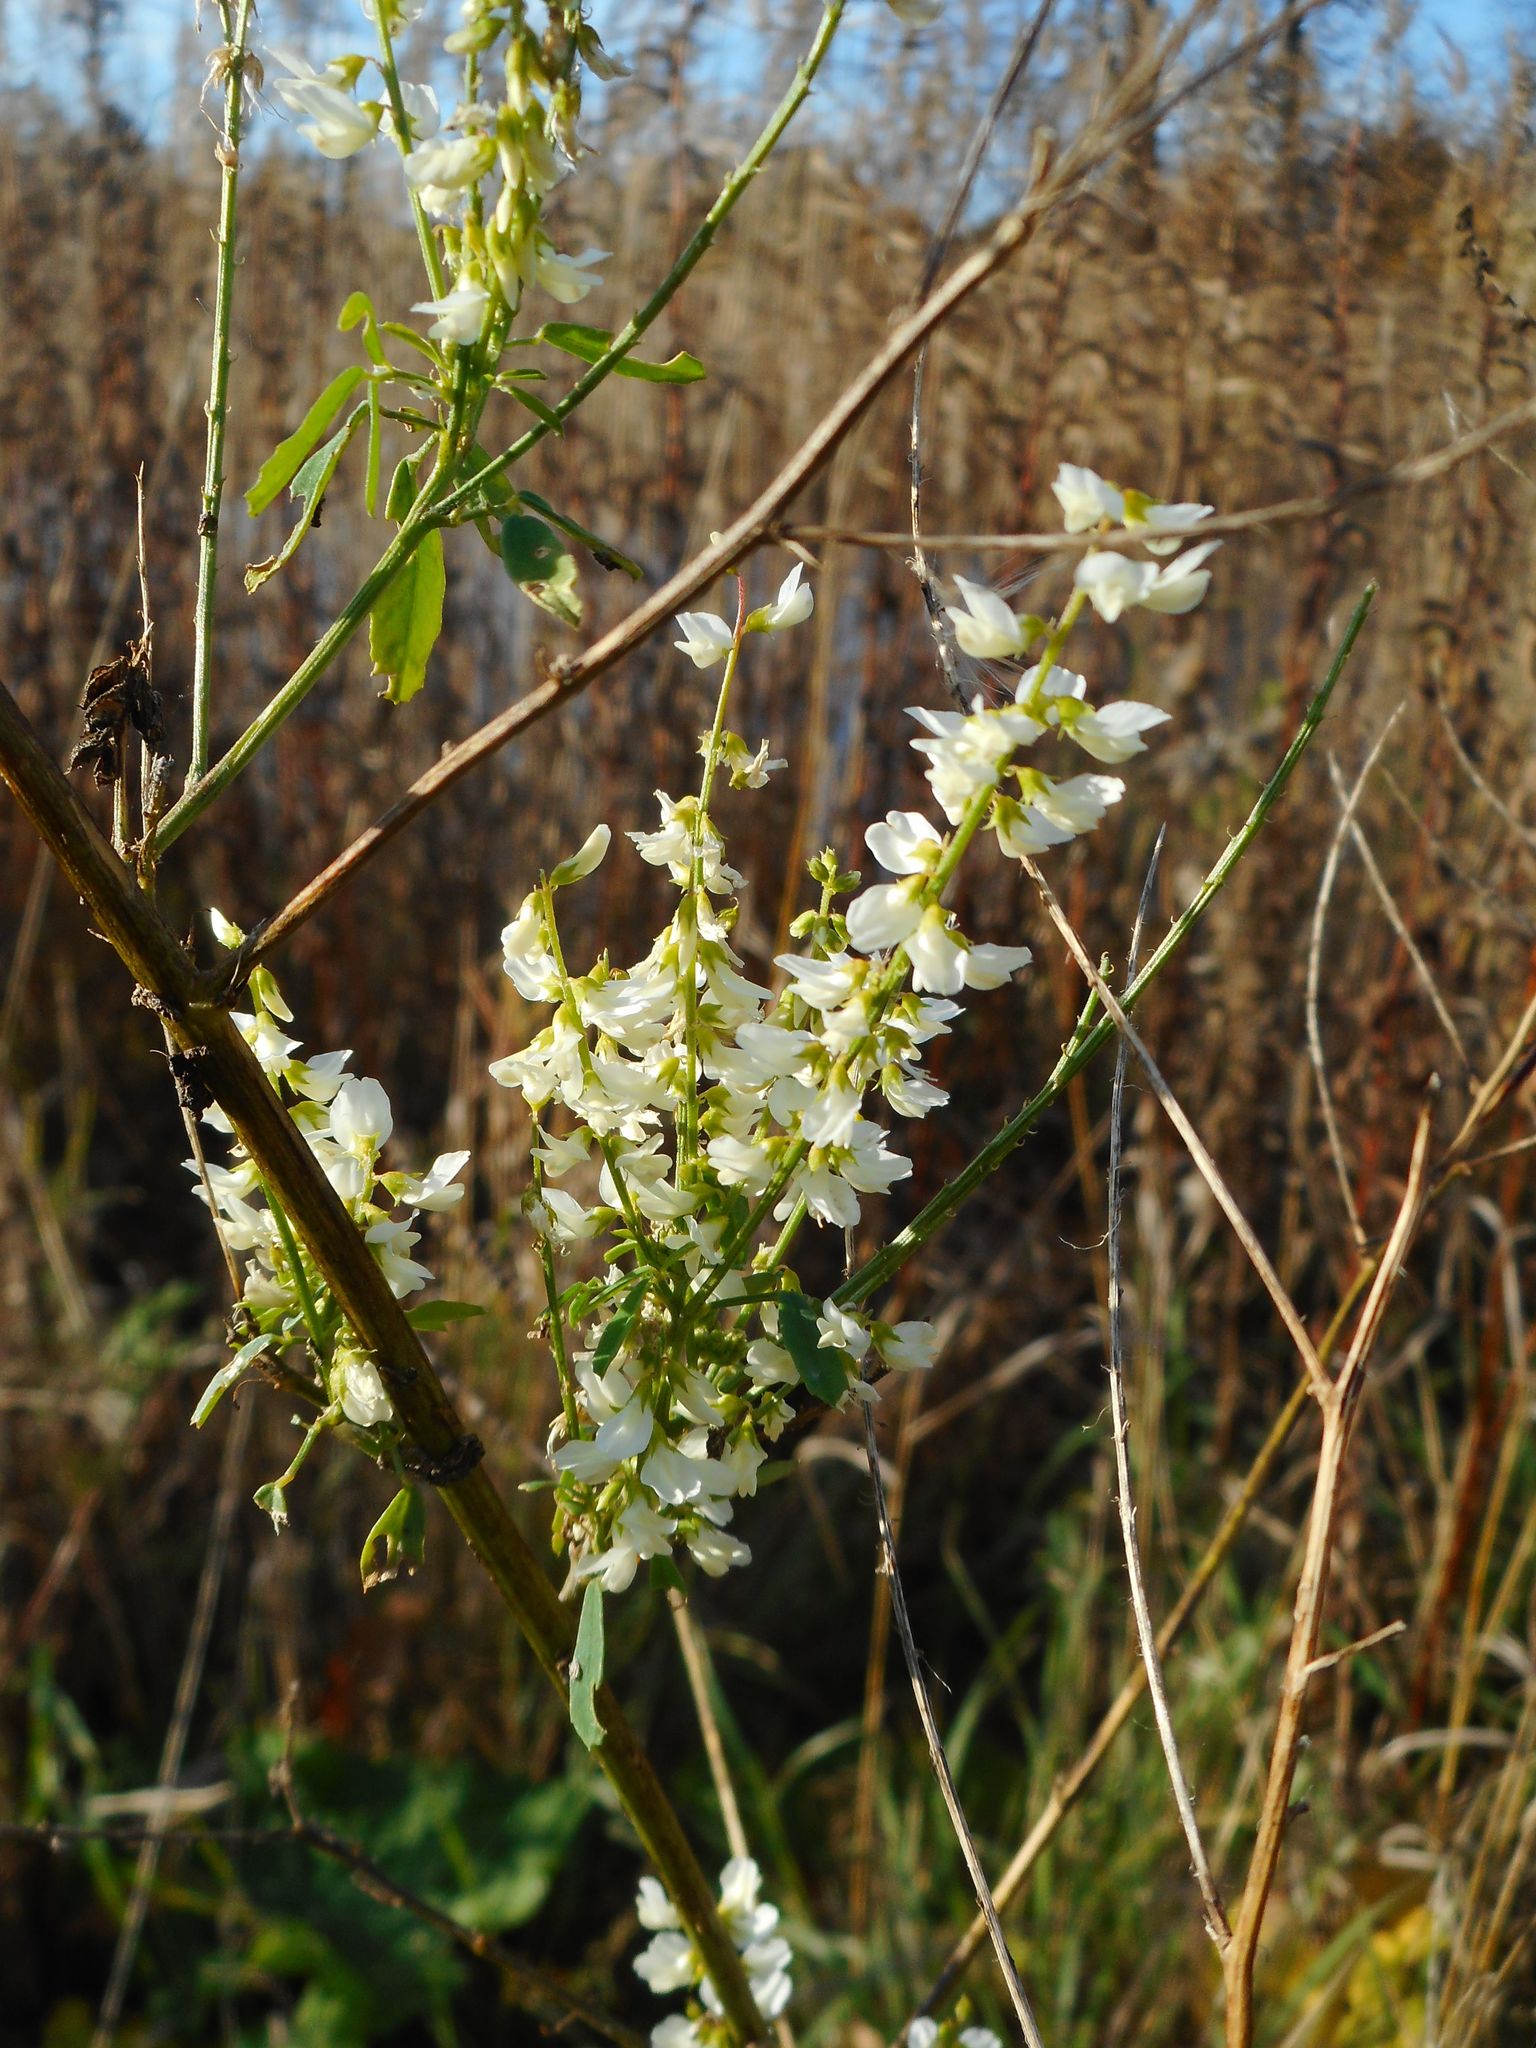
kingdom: Plantae
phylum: Tracheophyta
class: Magnoliopsida
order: Fabales
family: Fabaceae
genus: Melilotus
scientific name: Melilotus albus
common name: White melilot
